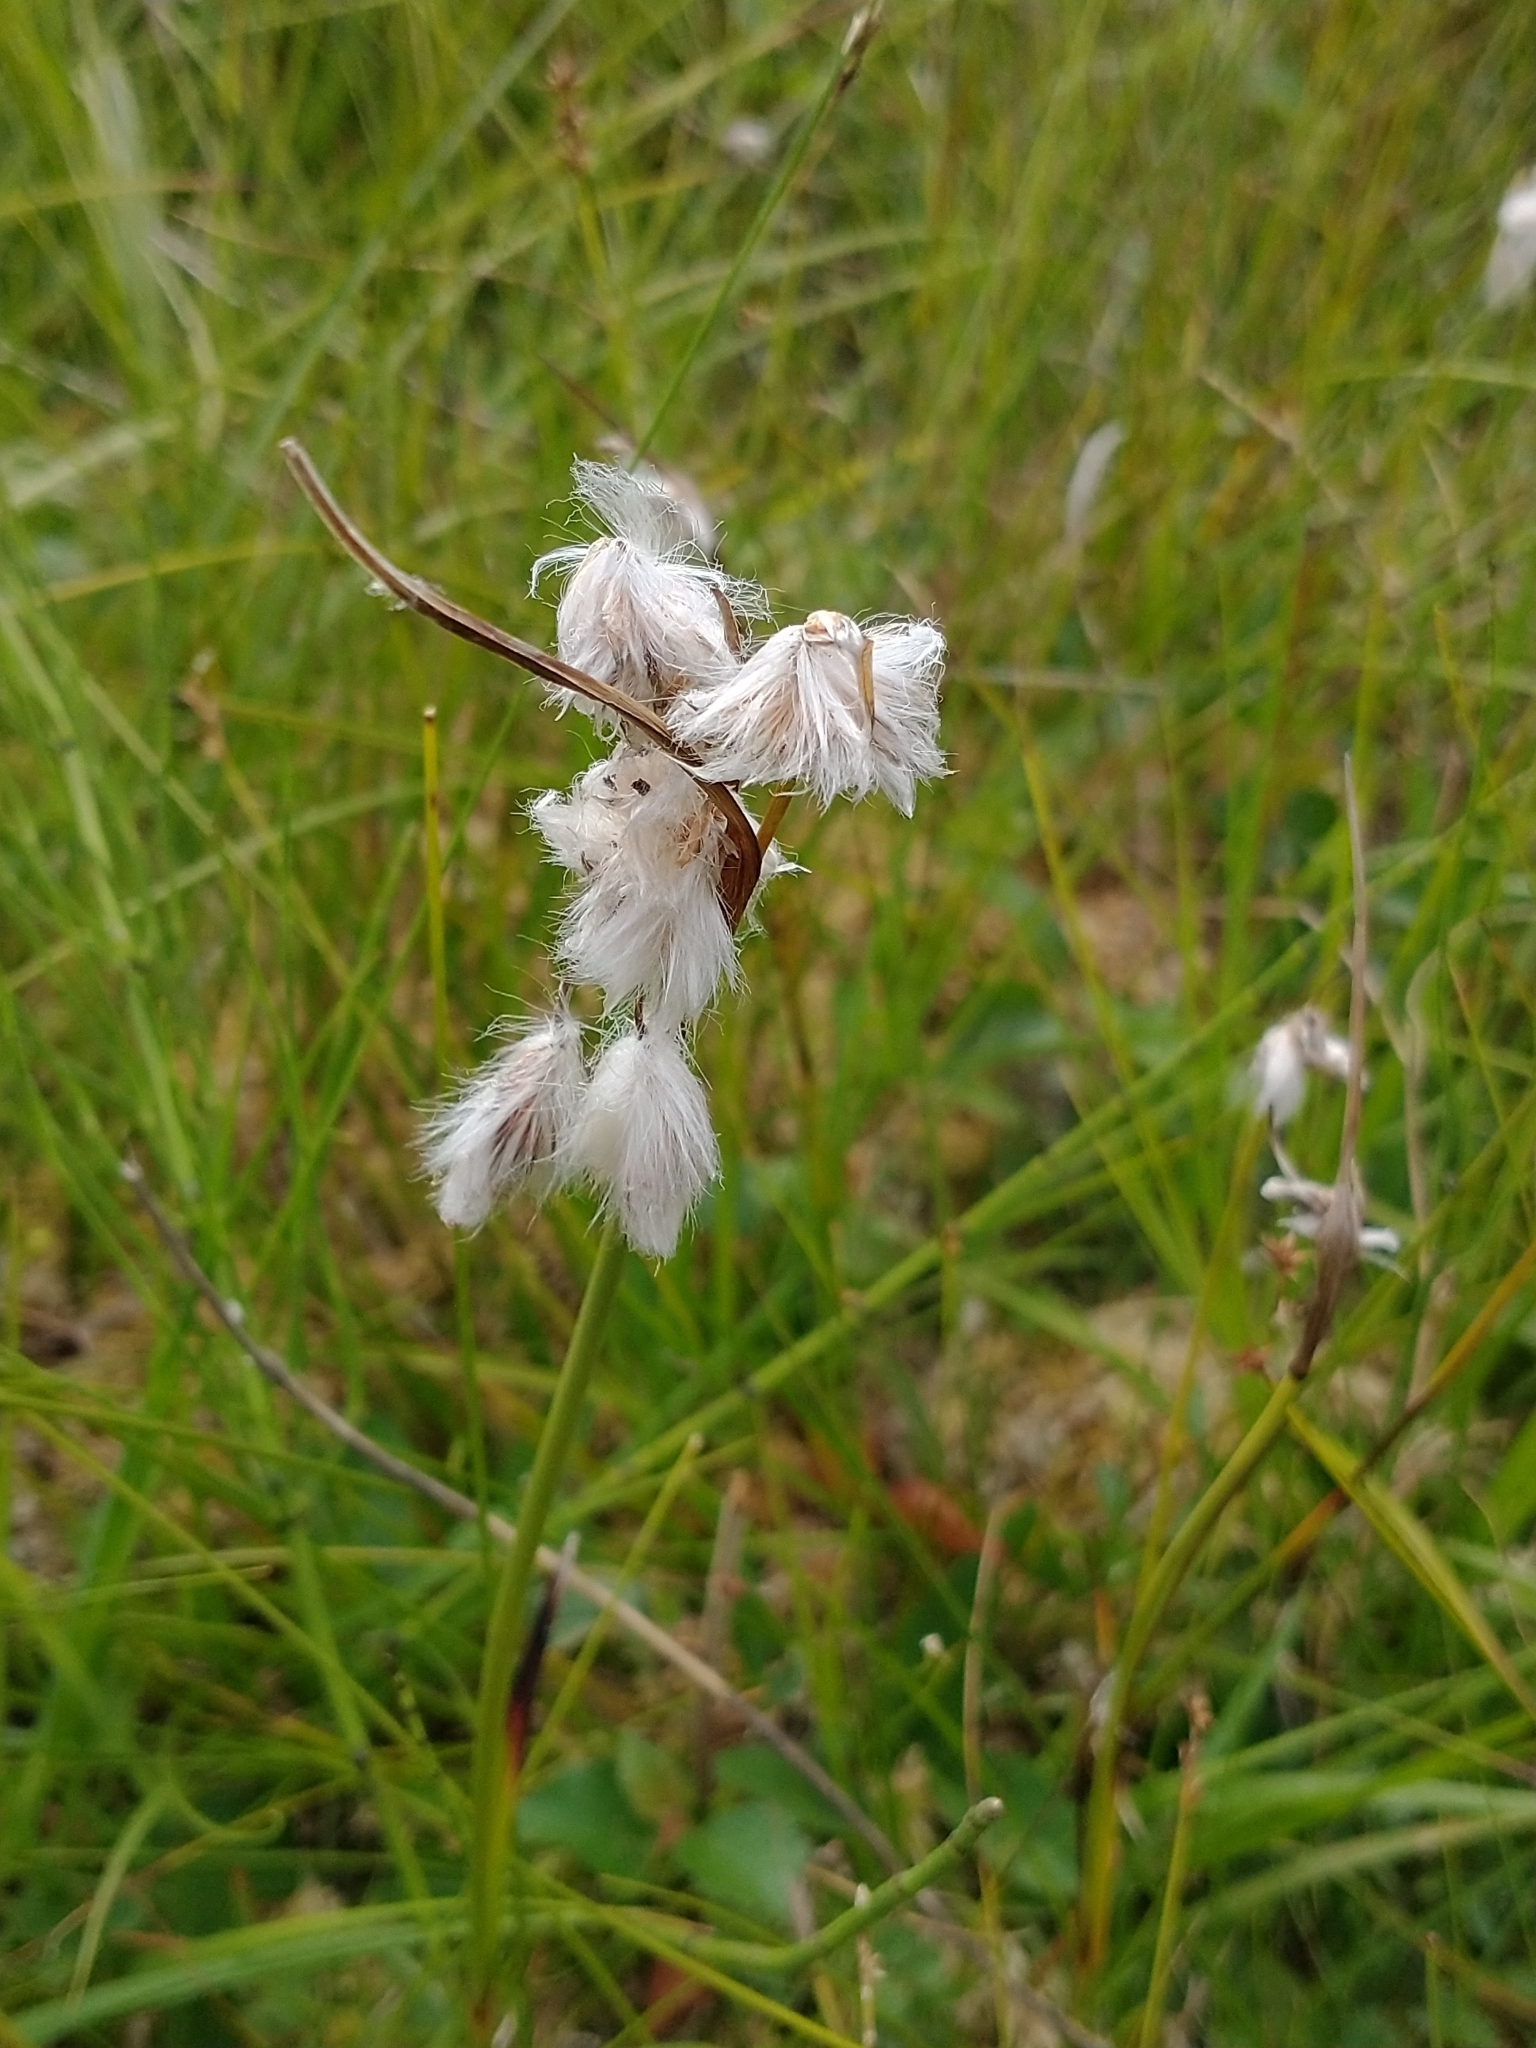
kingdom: Plantae
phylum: Tracheophyta
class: Liliopsida
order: Poales
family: Cyperaceae
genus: Eriophorum
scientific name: Eriophorum angustifolium
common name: Common cottongrass
